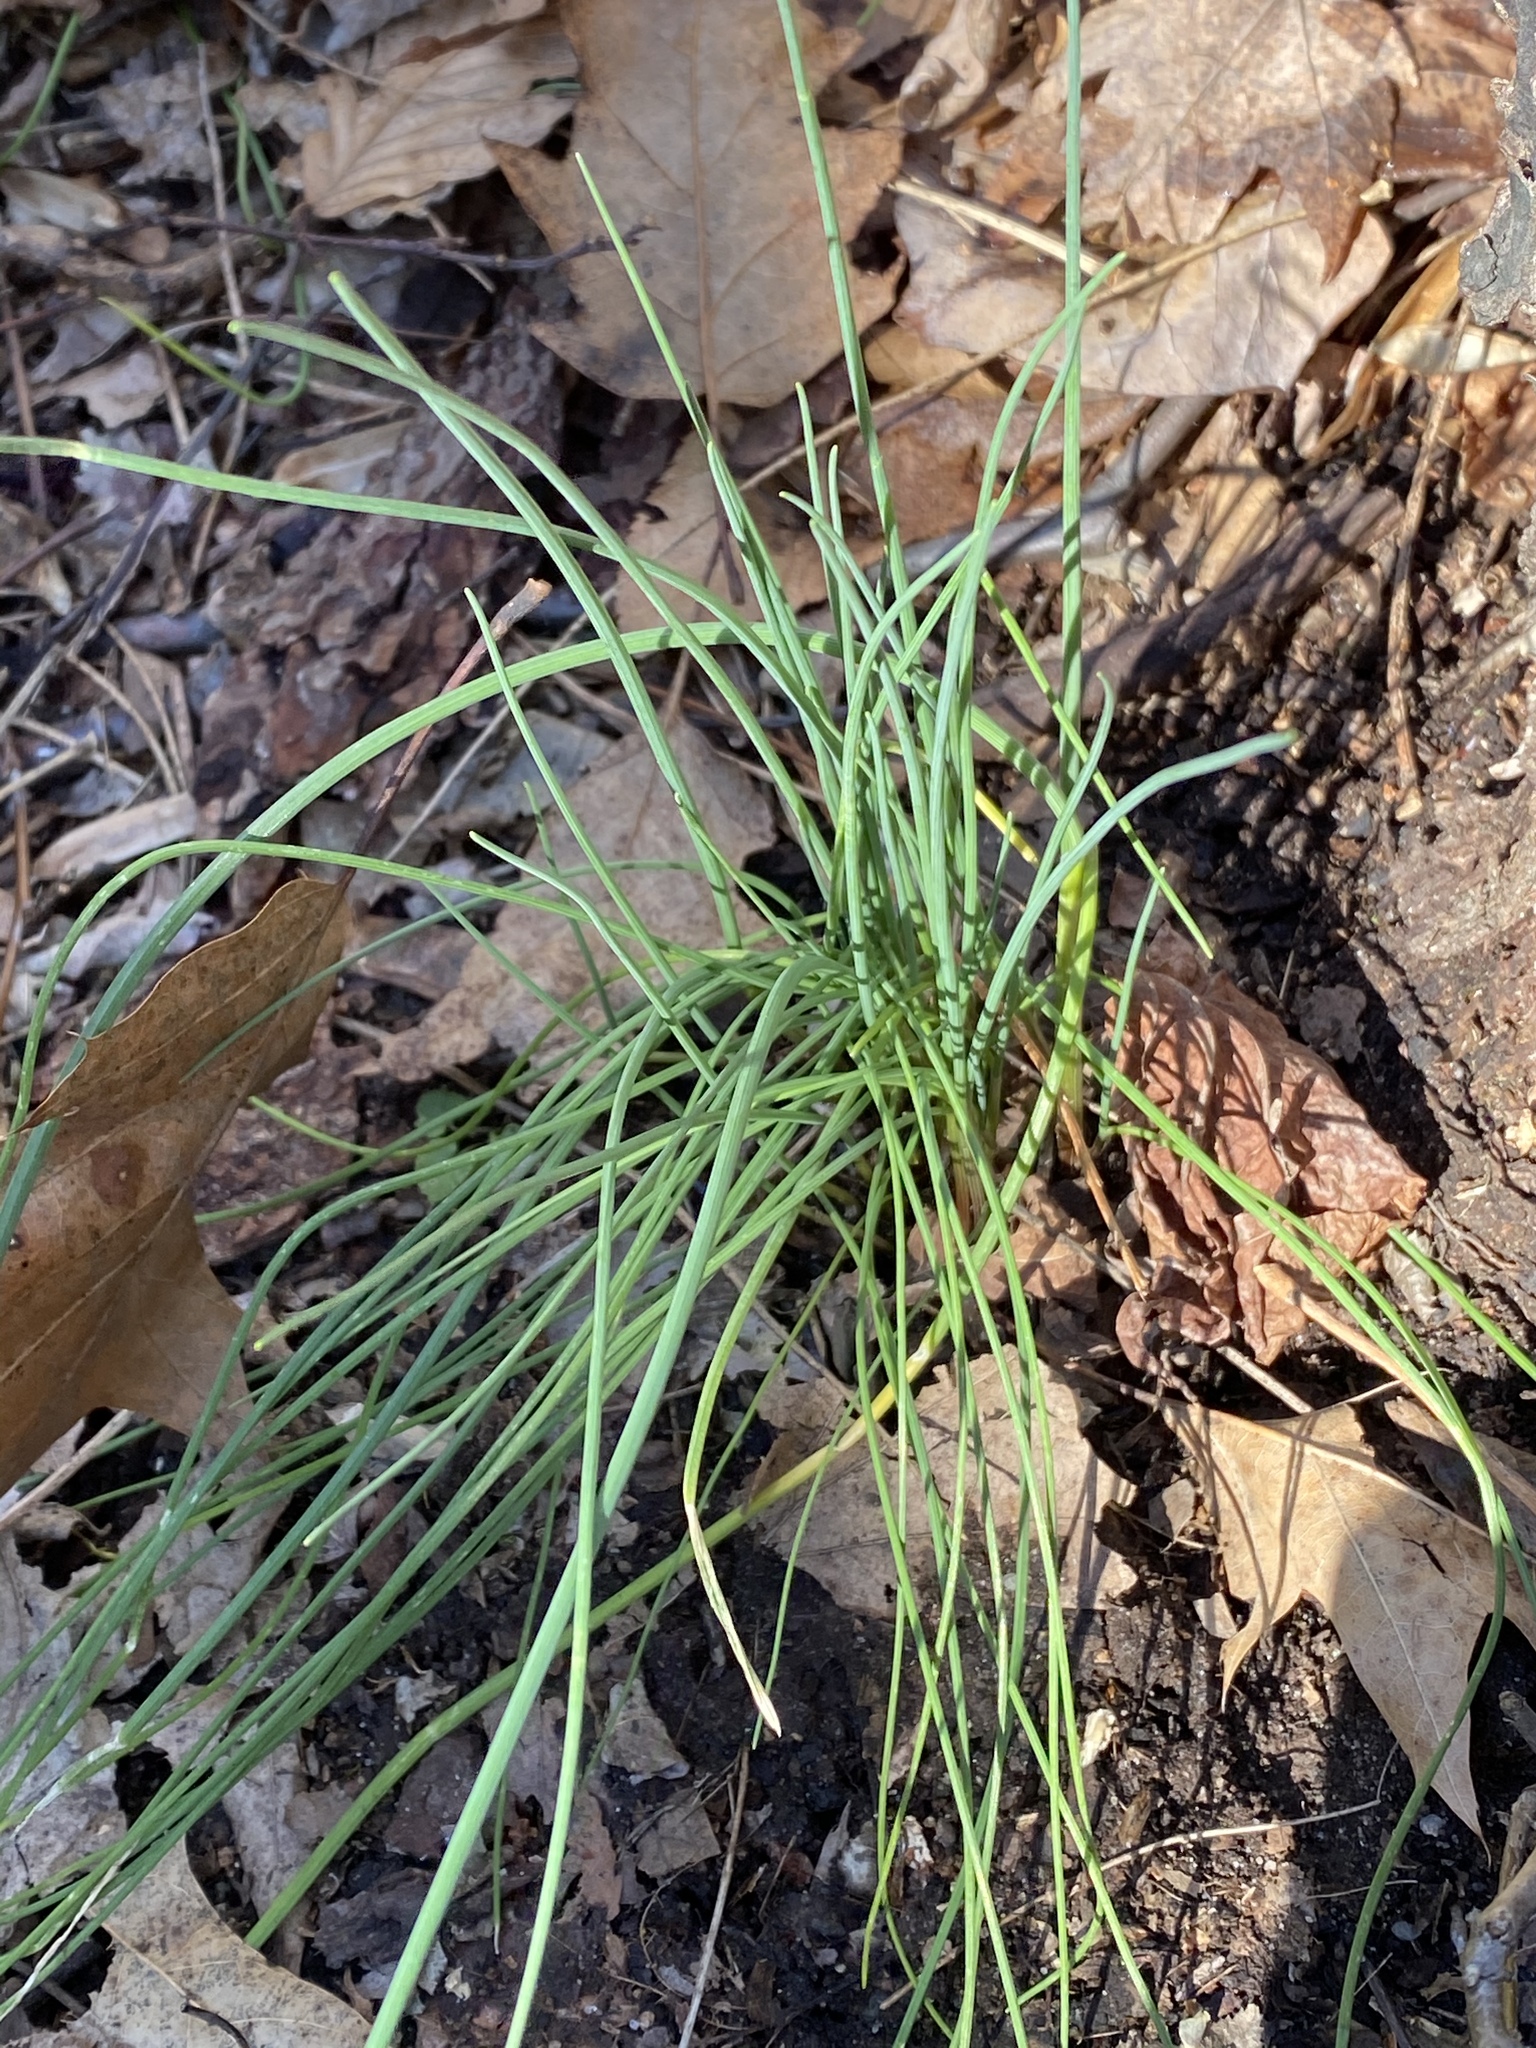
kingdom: Plantae
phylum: Tracheophyta
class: Liliopsida
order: Asparagales
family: Amaryllidaceae
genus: Allium
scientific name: Allium vineale
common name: Crow garlic
